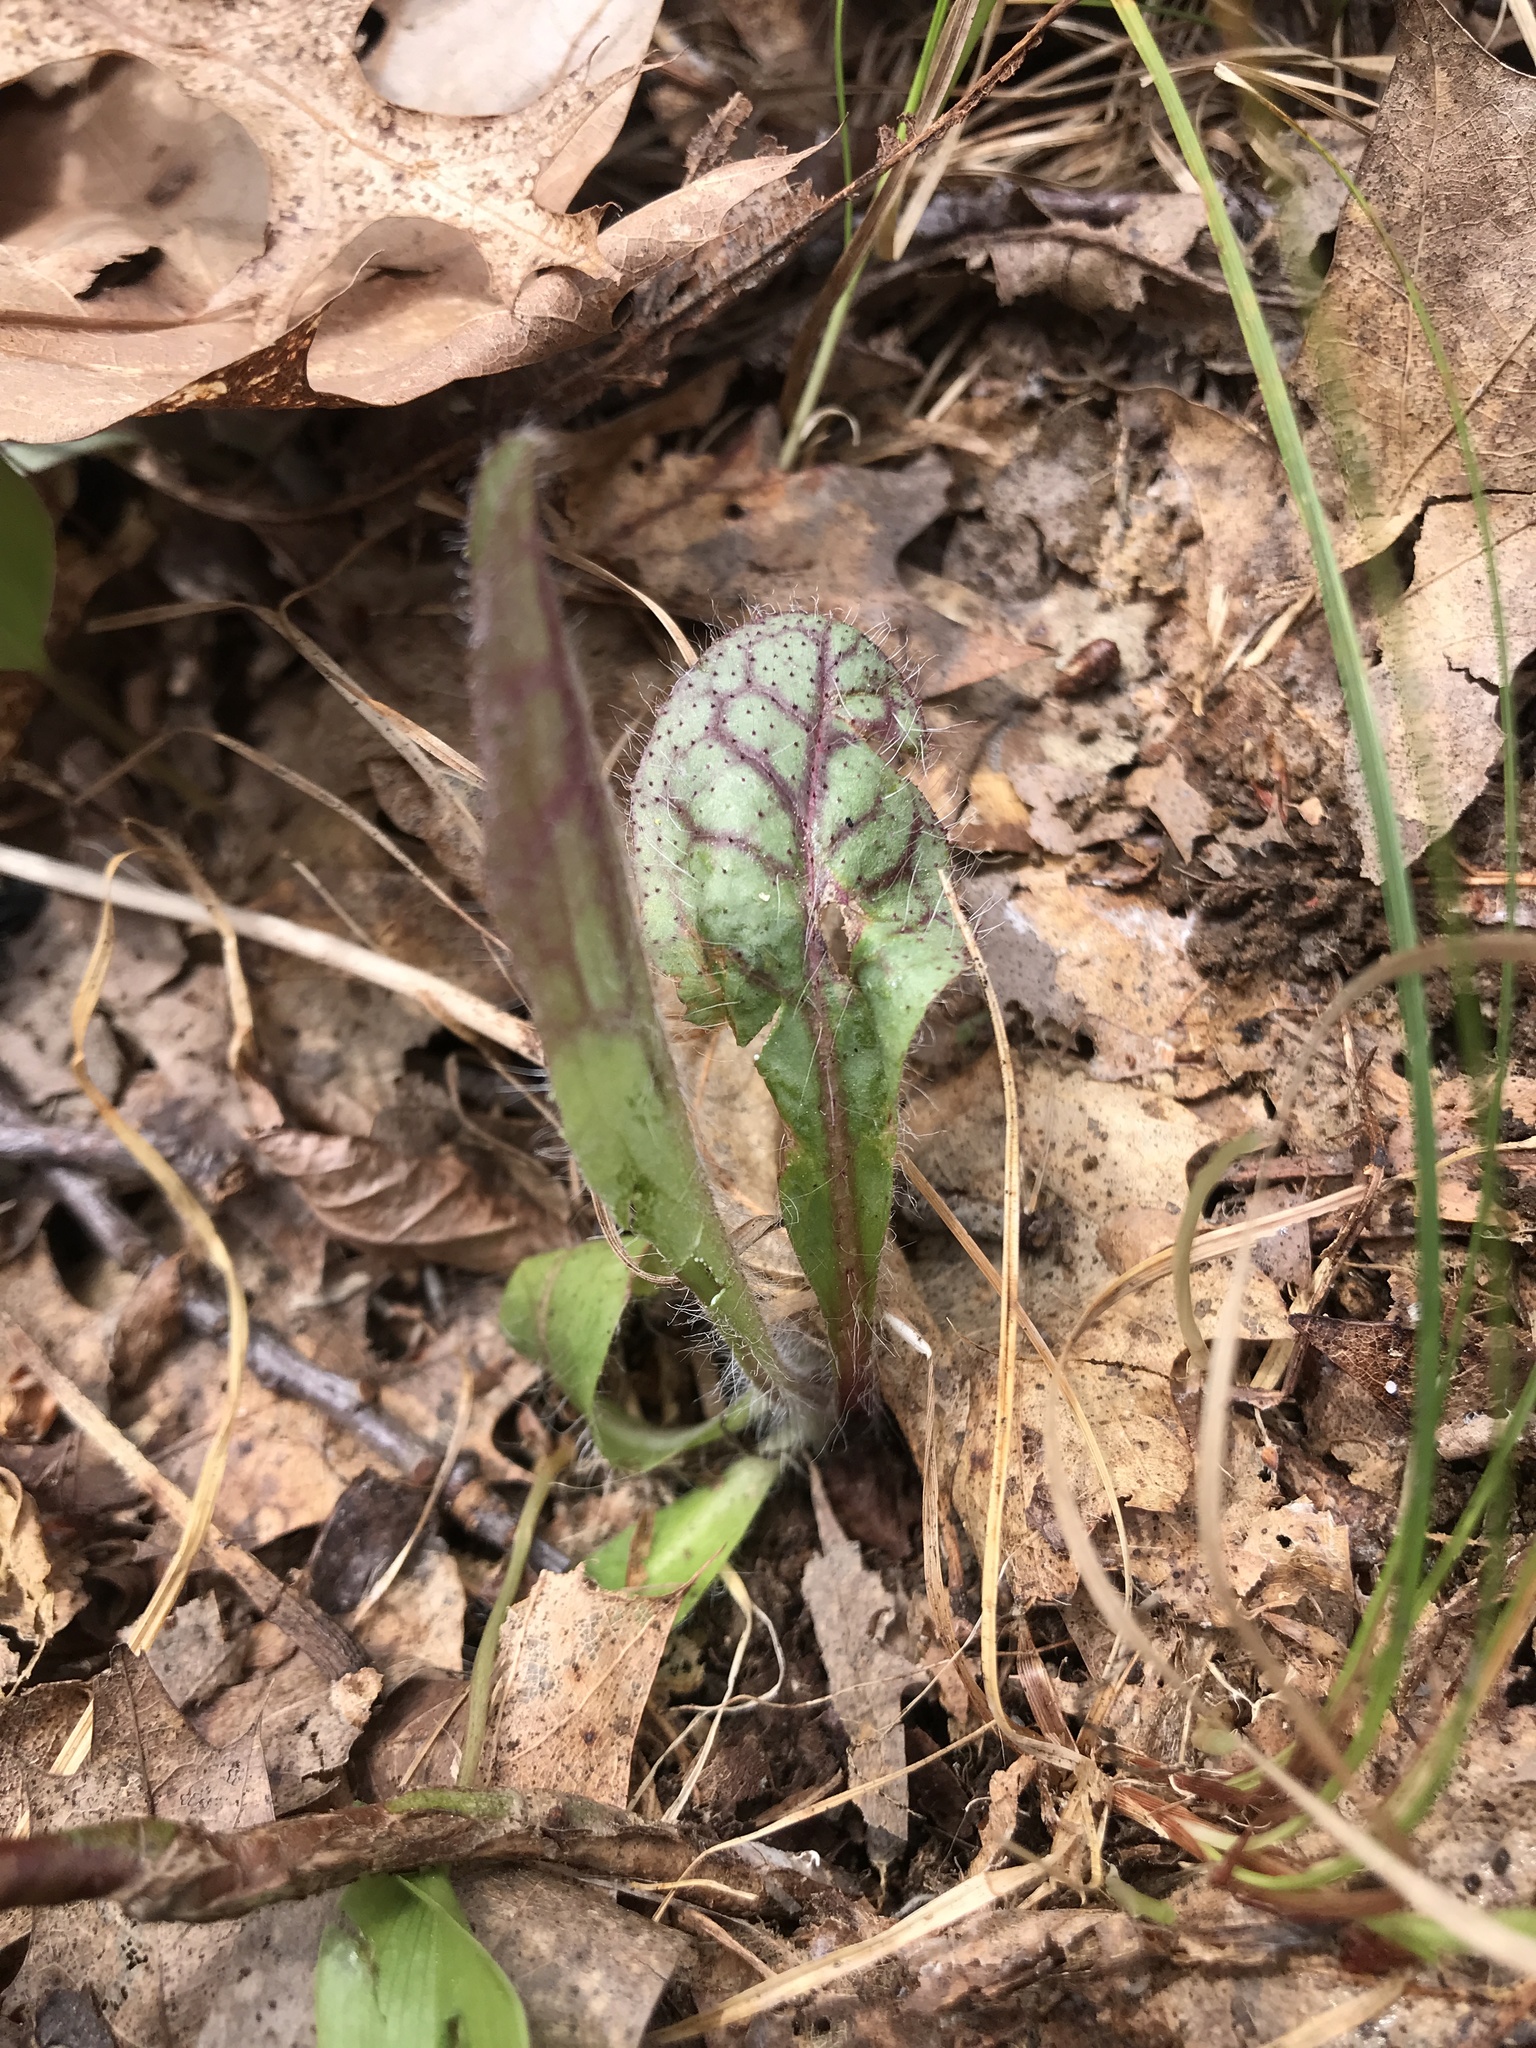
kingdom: Plantae
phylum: Tracheophyta
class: Magnoliopsida
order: Asterales
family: Asteraceae
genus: Hieracium
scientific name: Hieracium venosum
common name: Rattlesnake hawkweed
